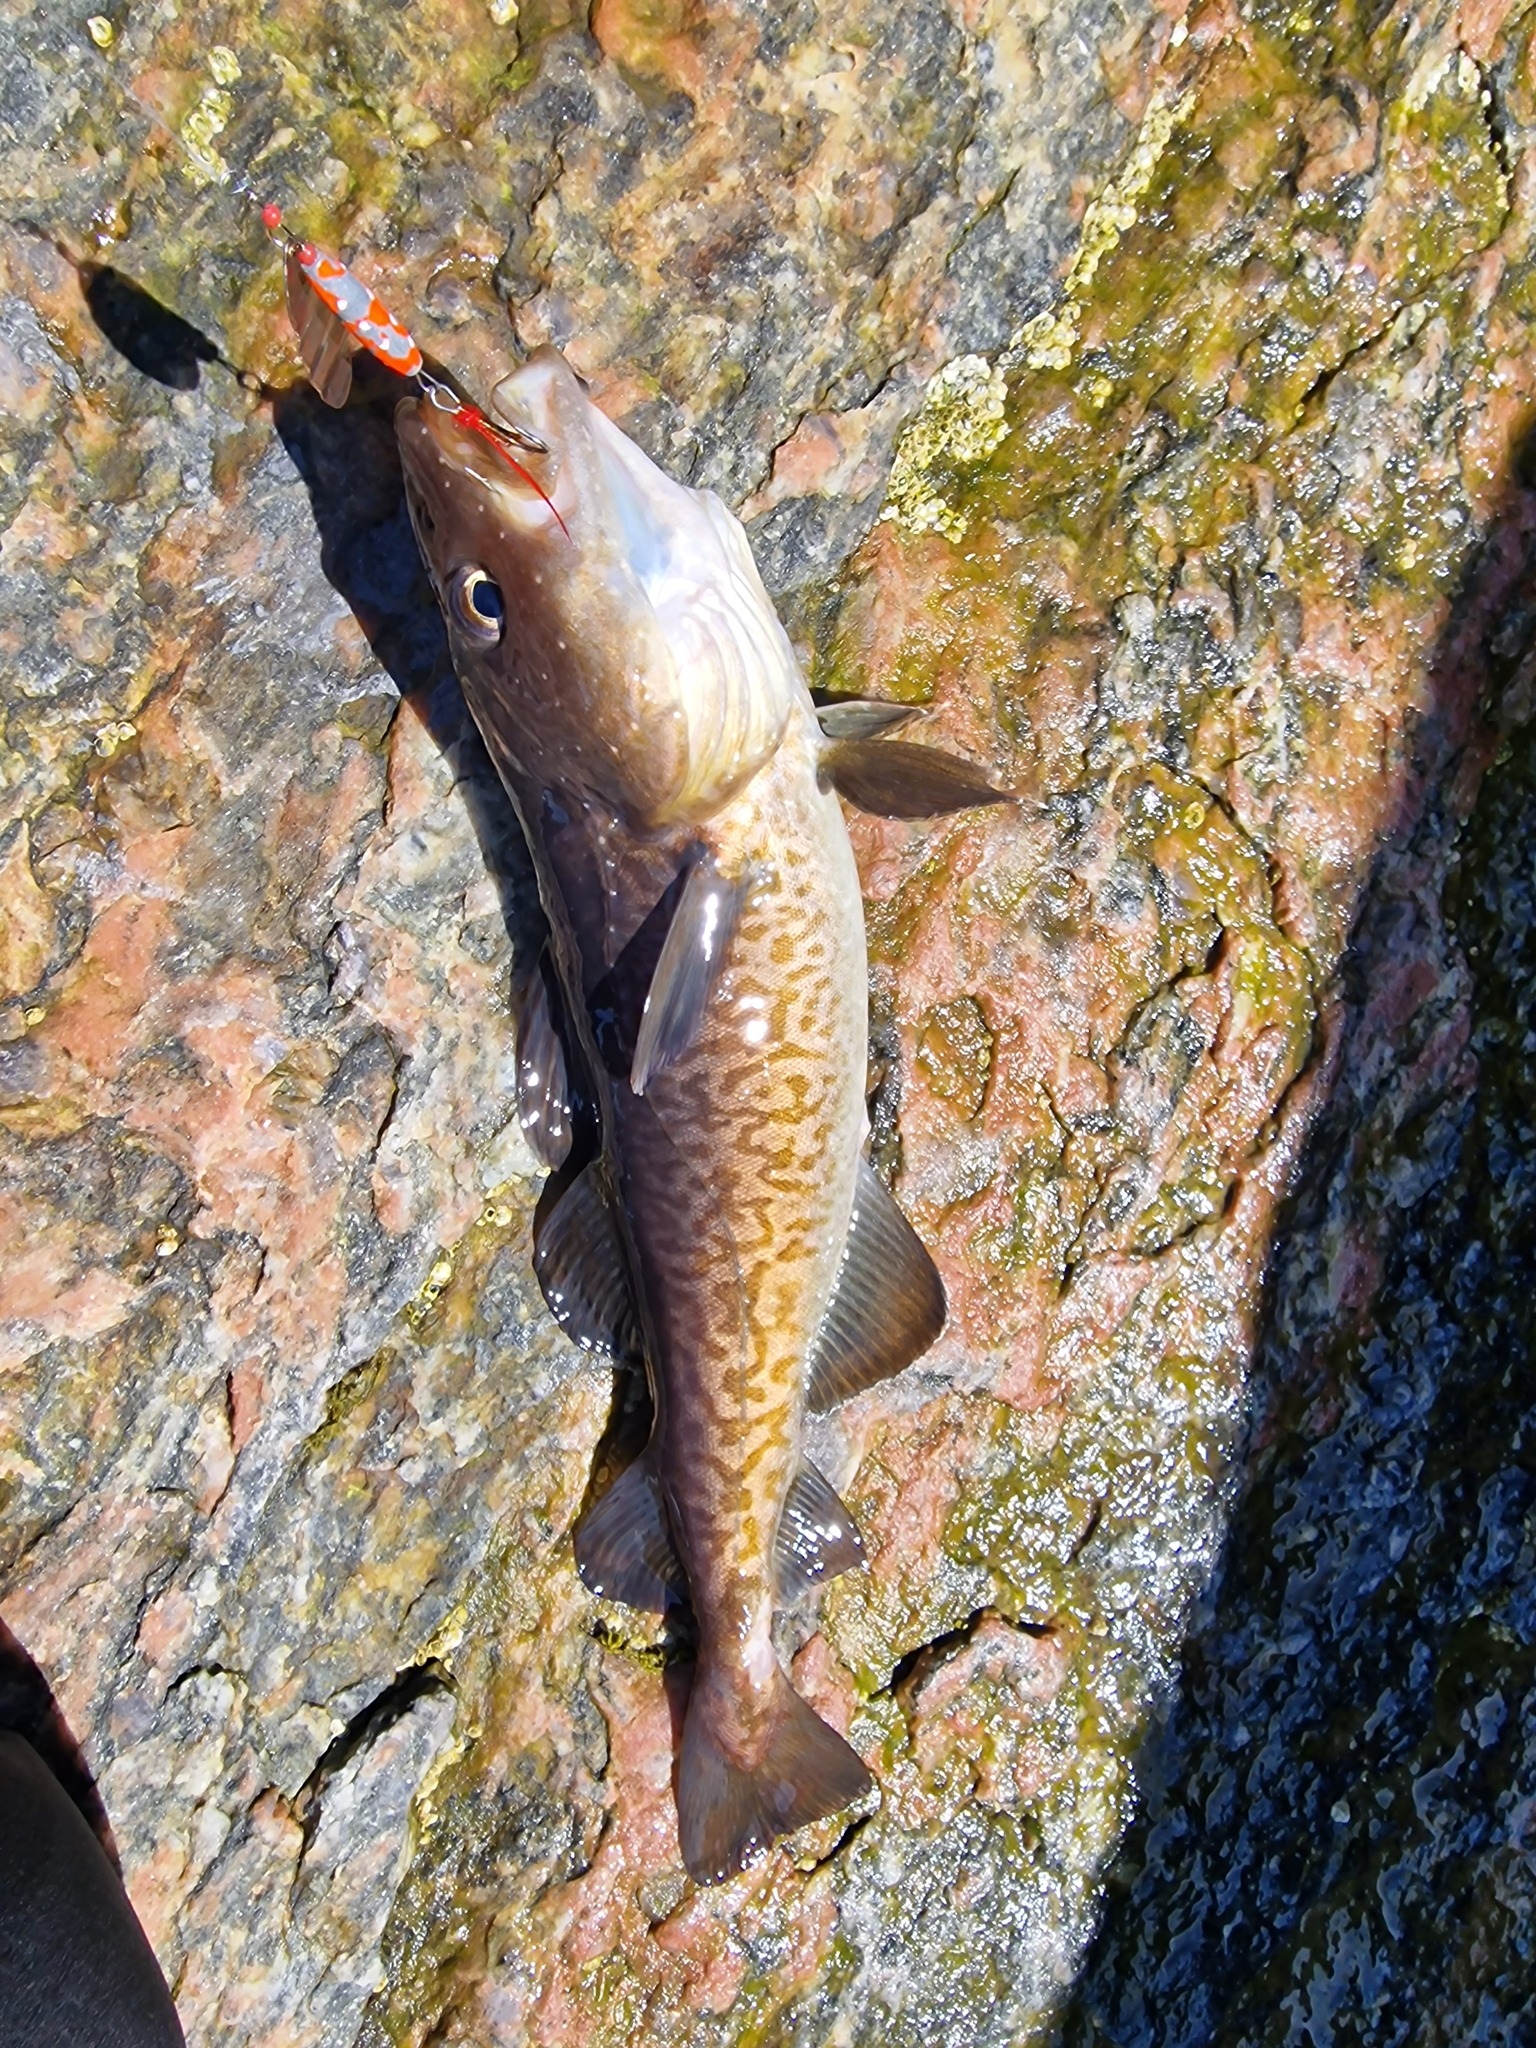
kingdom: Animalia
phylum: Chordata
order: Gadiformes
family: Gadidae
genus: Gadus
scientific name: Gadus macrocephalus
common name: Pacific cod
